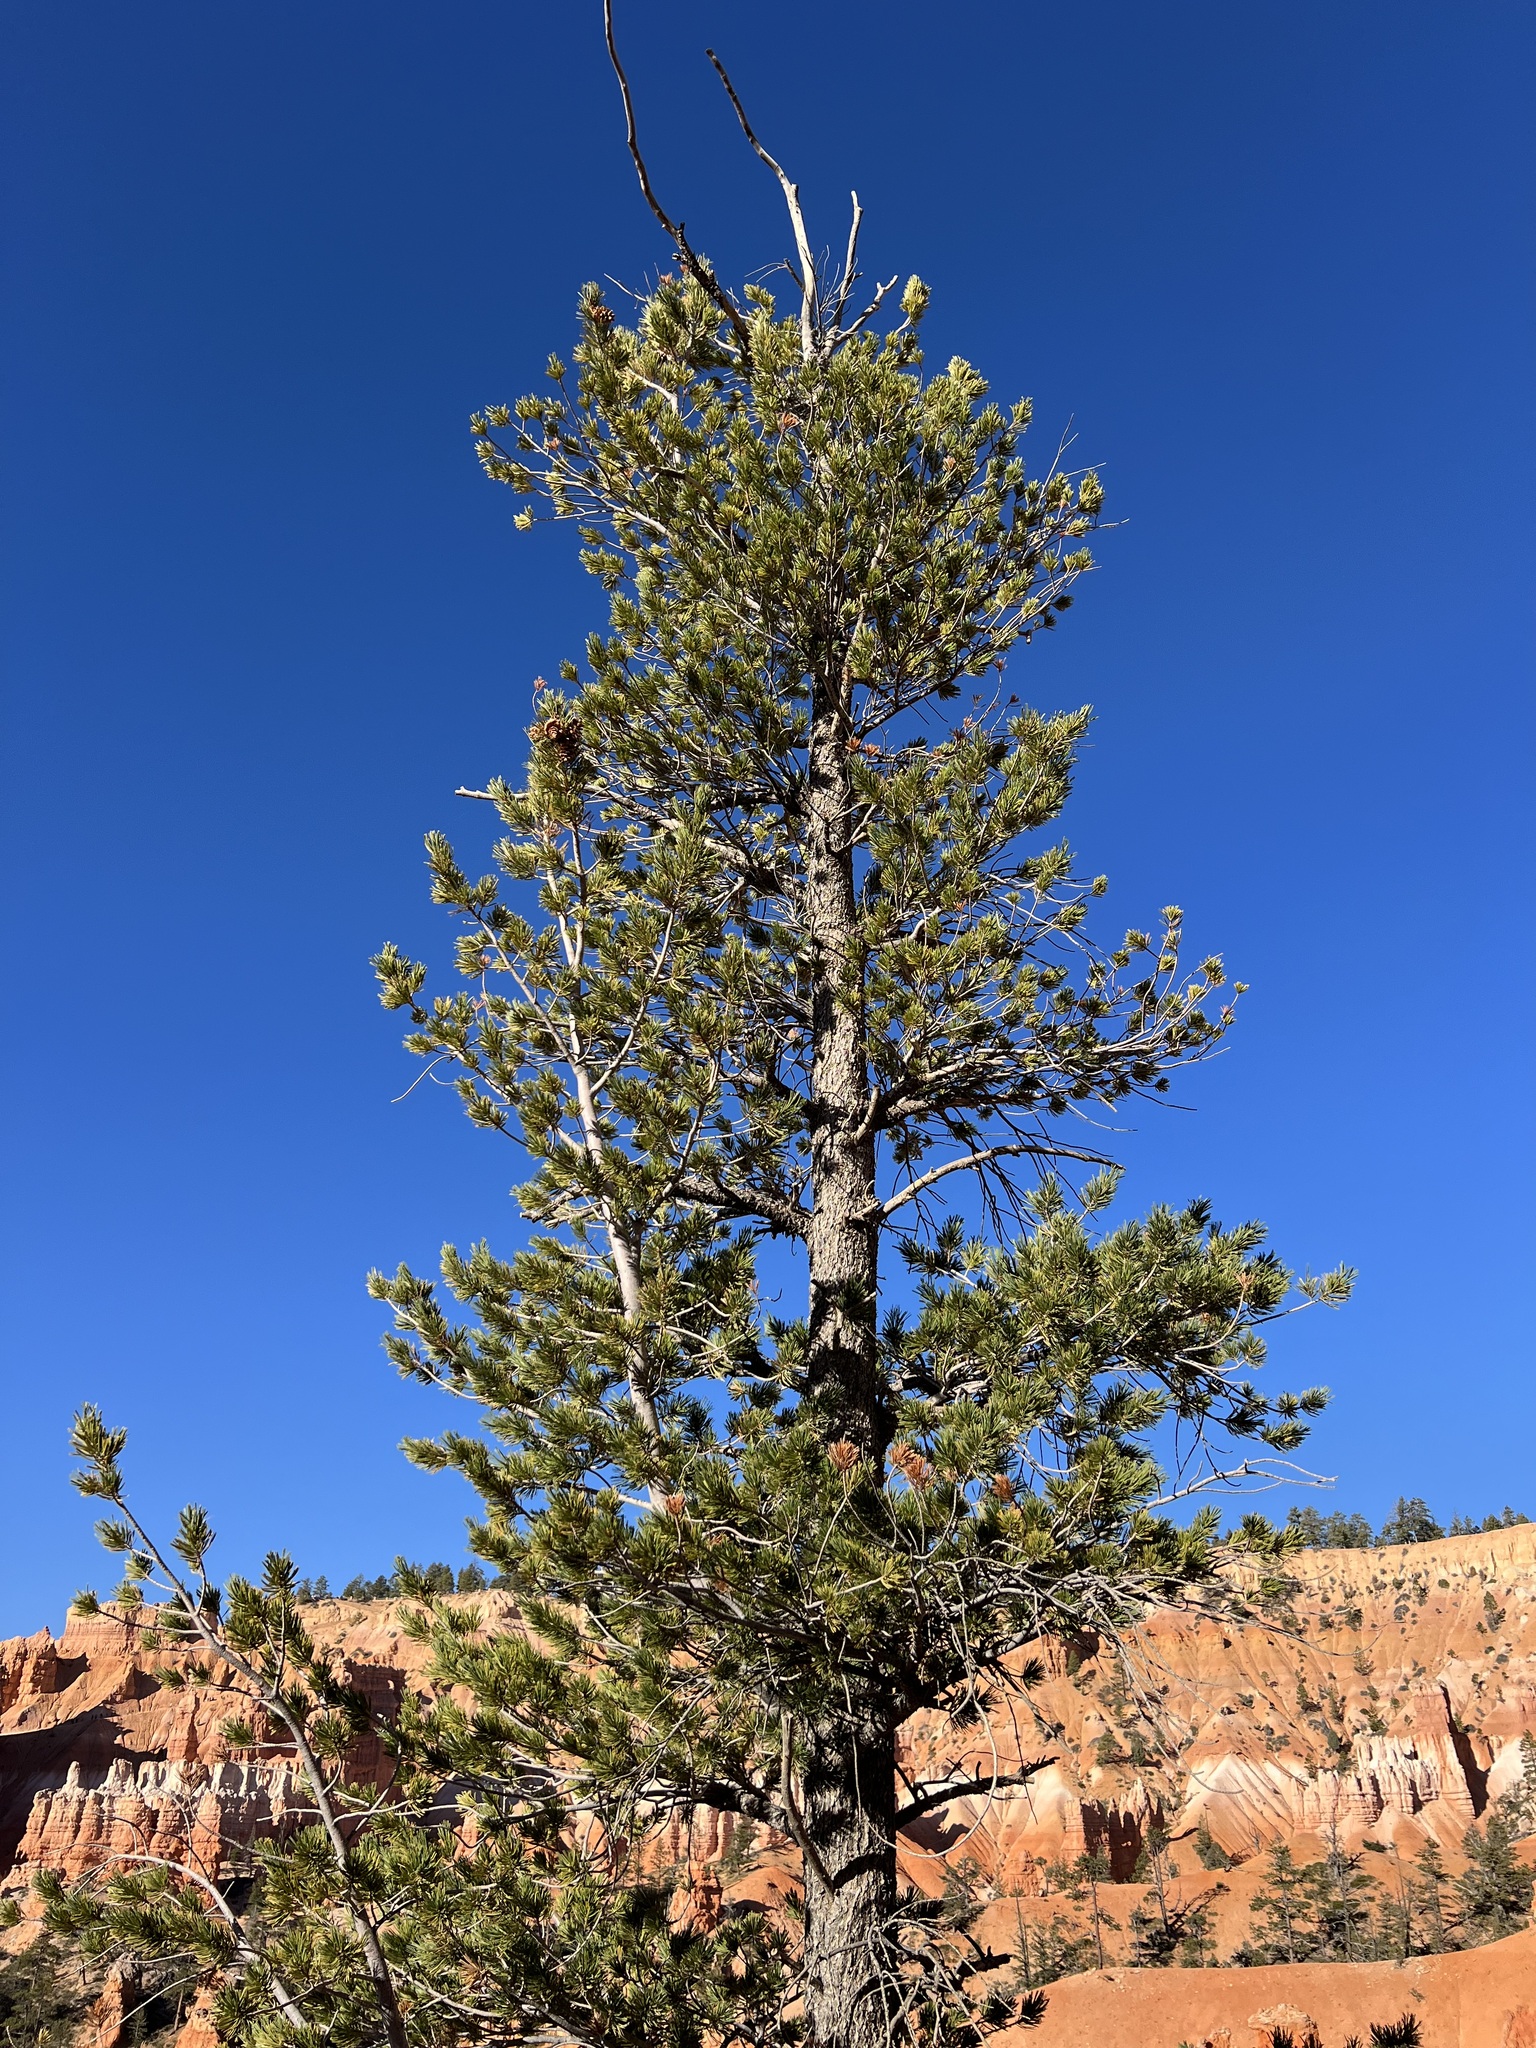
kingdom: Plantae
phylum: Tracheophyta
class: Pinopsida
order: Pinales
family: Pinaceae
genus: Pinus
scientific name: Pinus flexilis
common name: Limber pine
